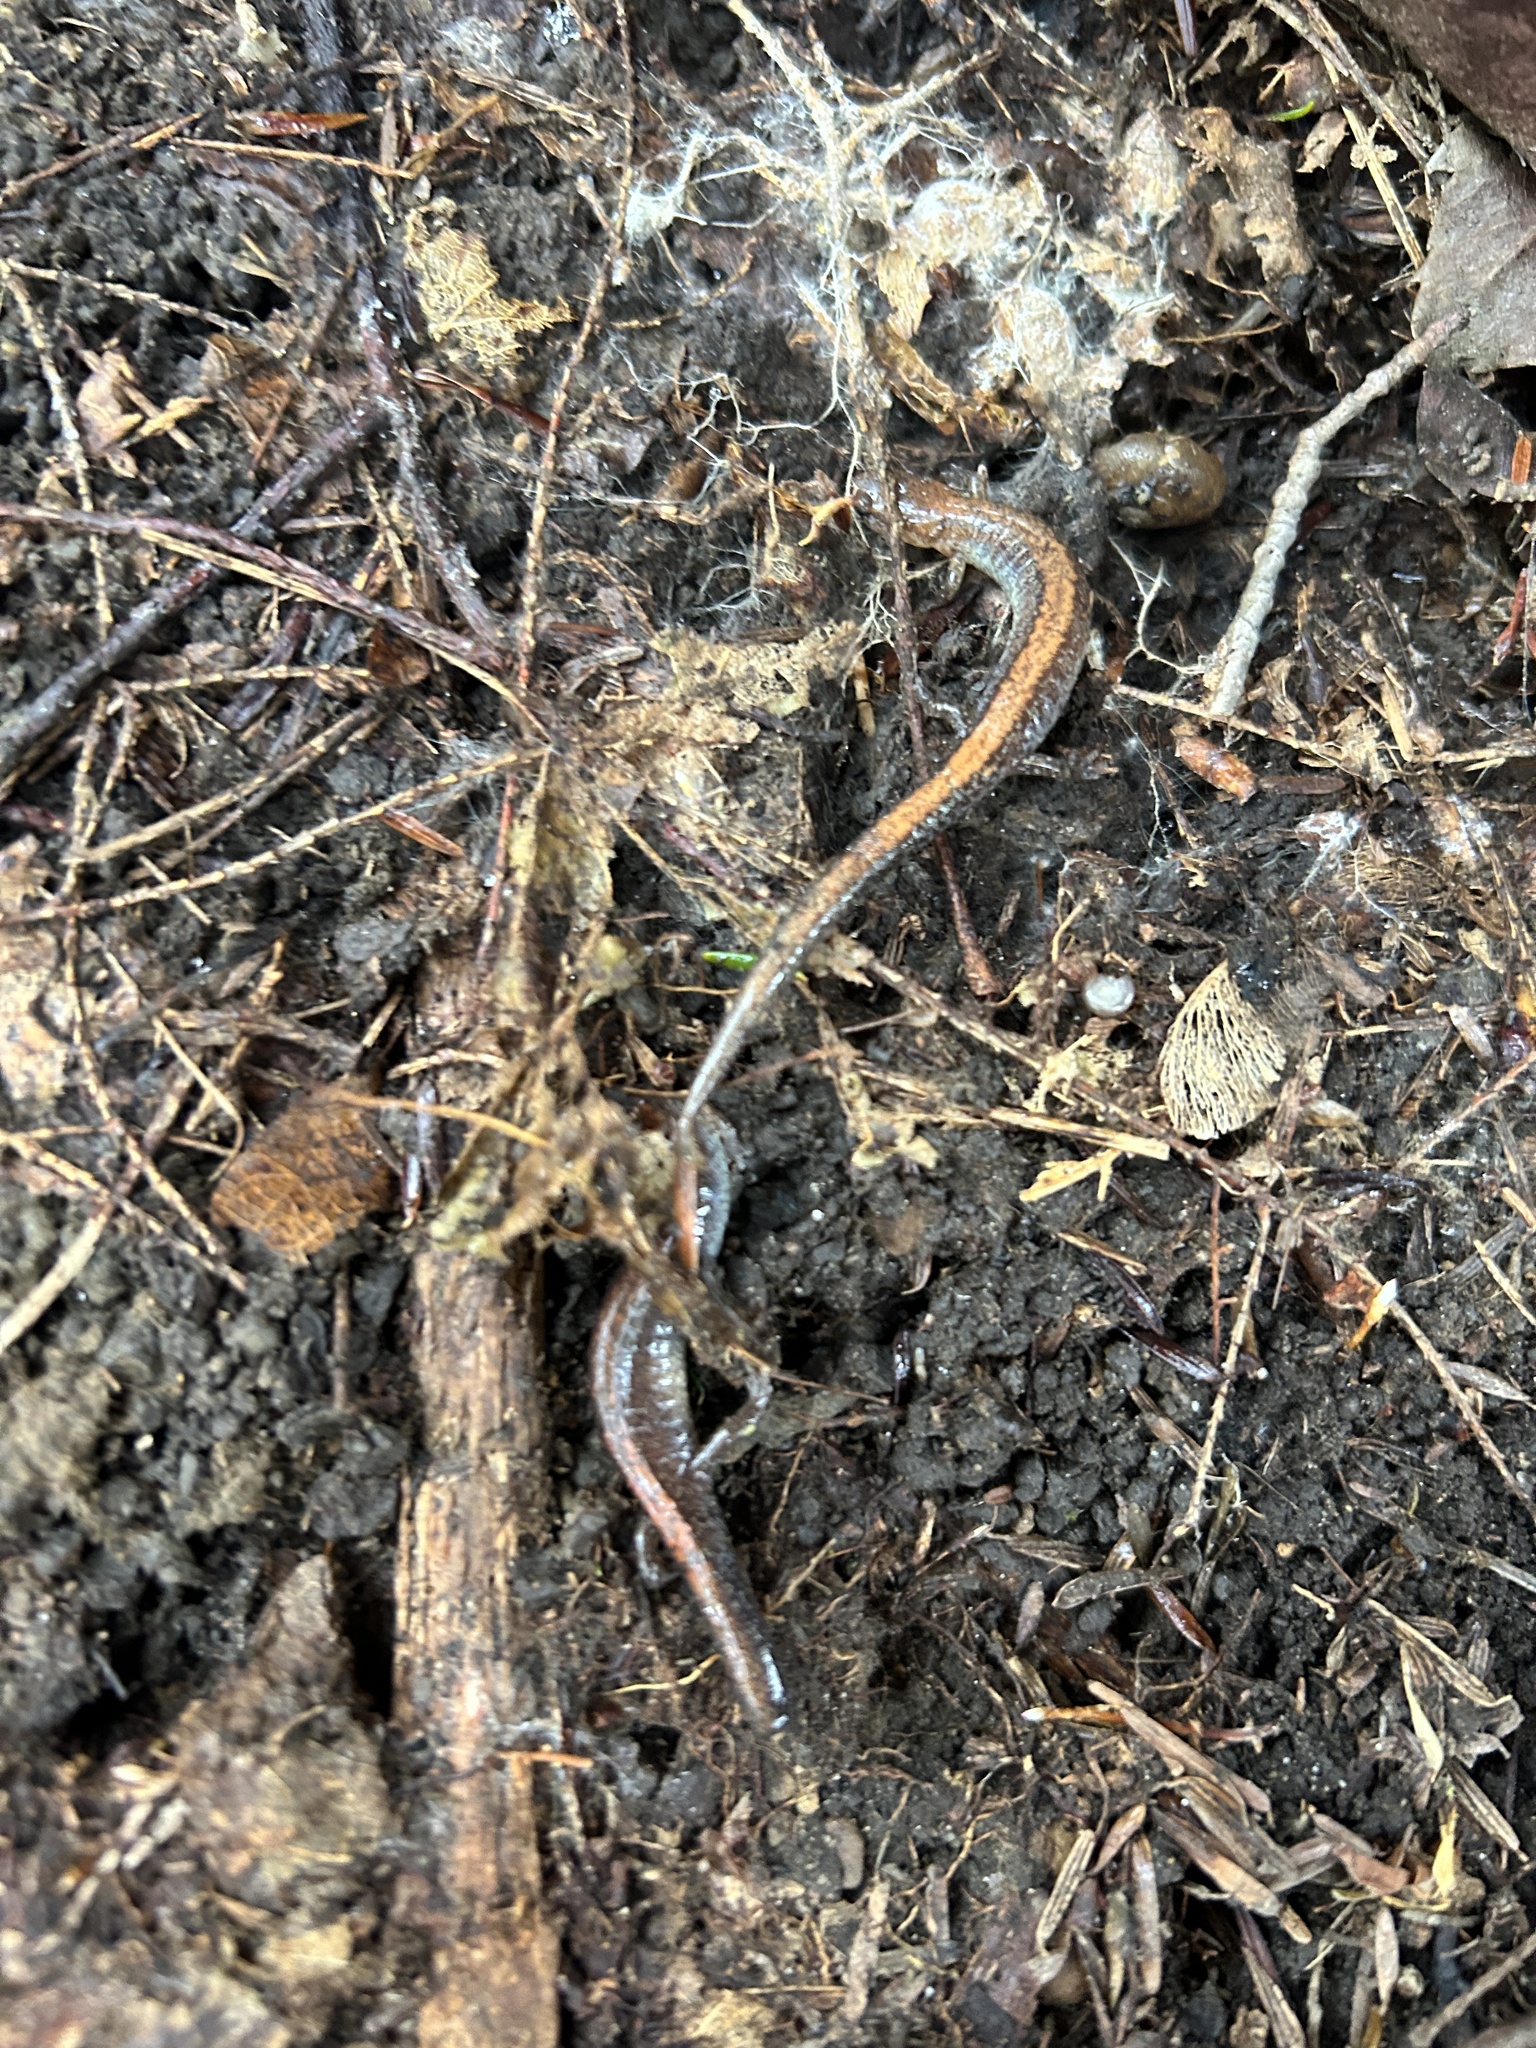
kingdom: Animalia
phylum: Chordata
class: Amphibia
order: Caudata
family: Plethodontidae
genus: Plethodon
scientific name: Plethodon cinereus
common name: Redback salamander
